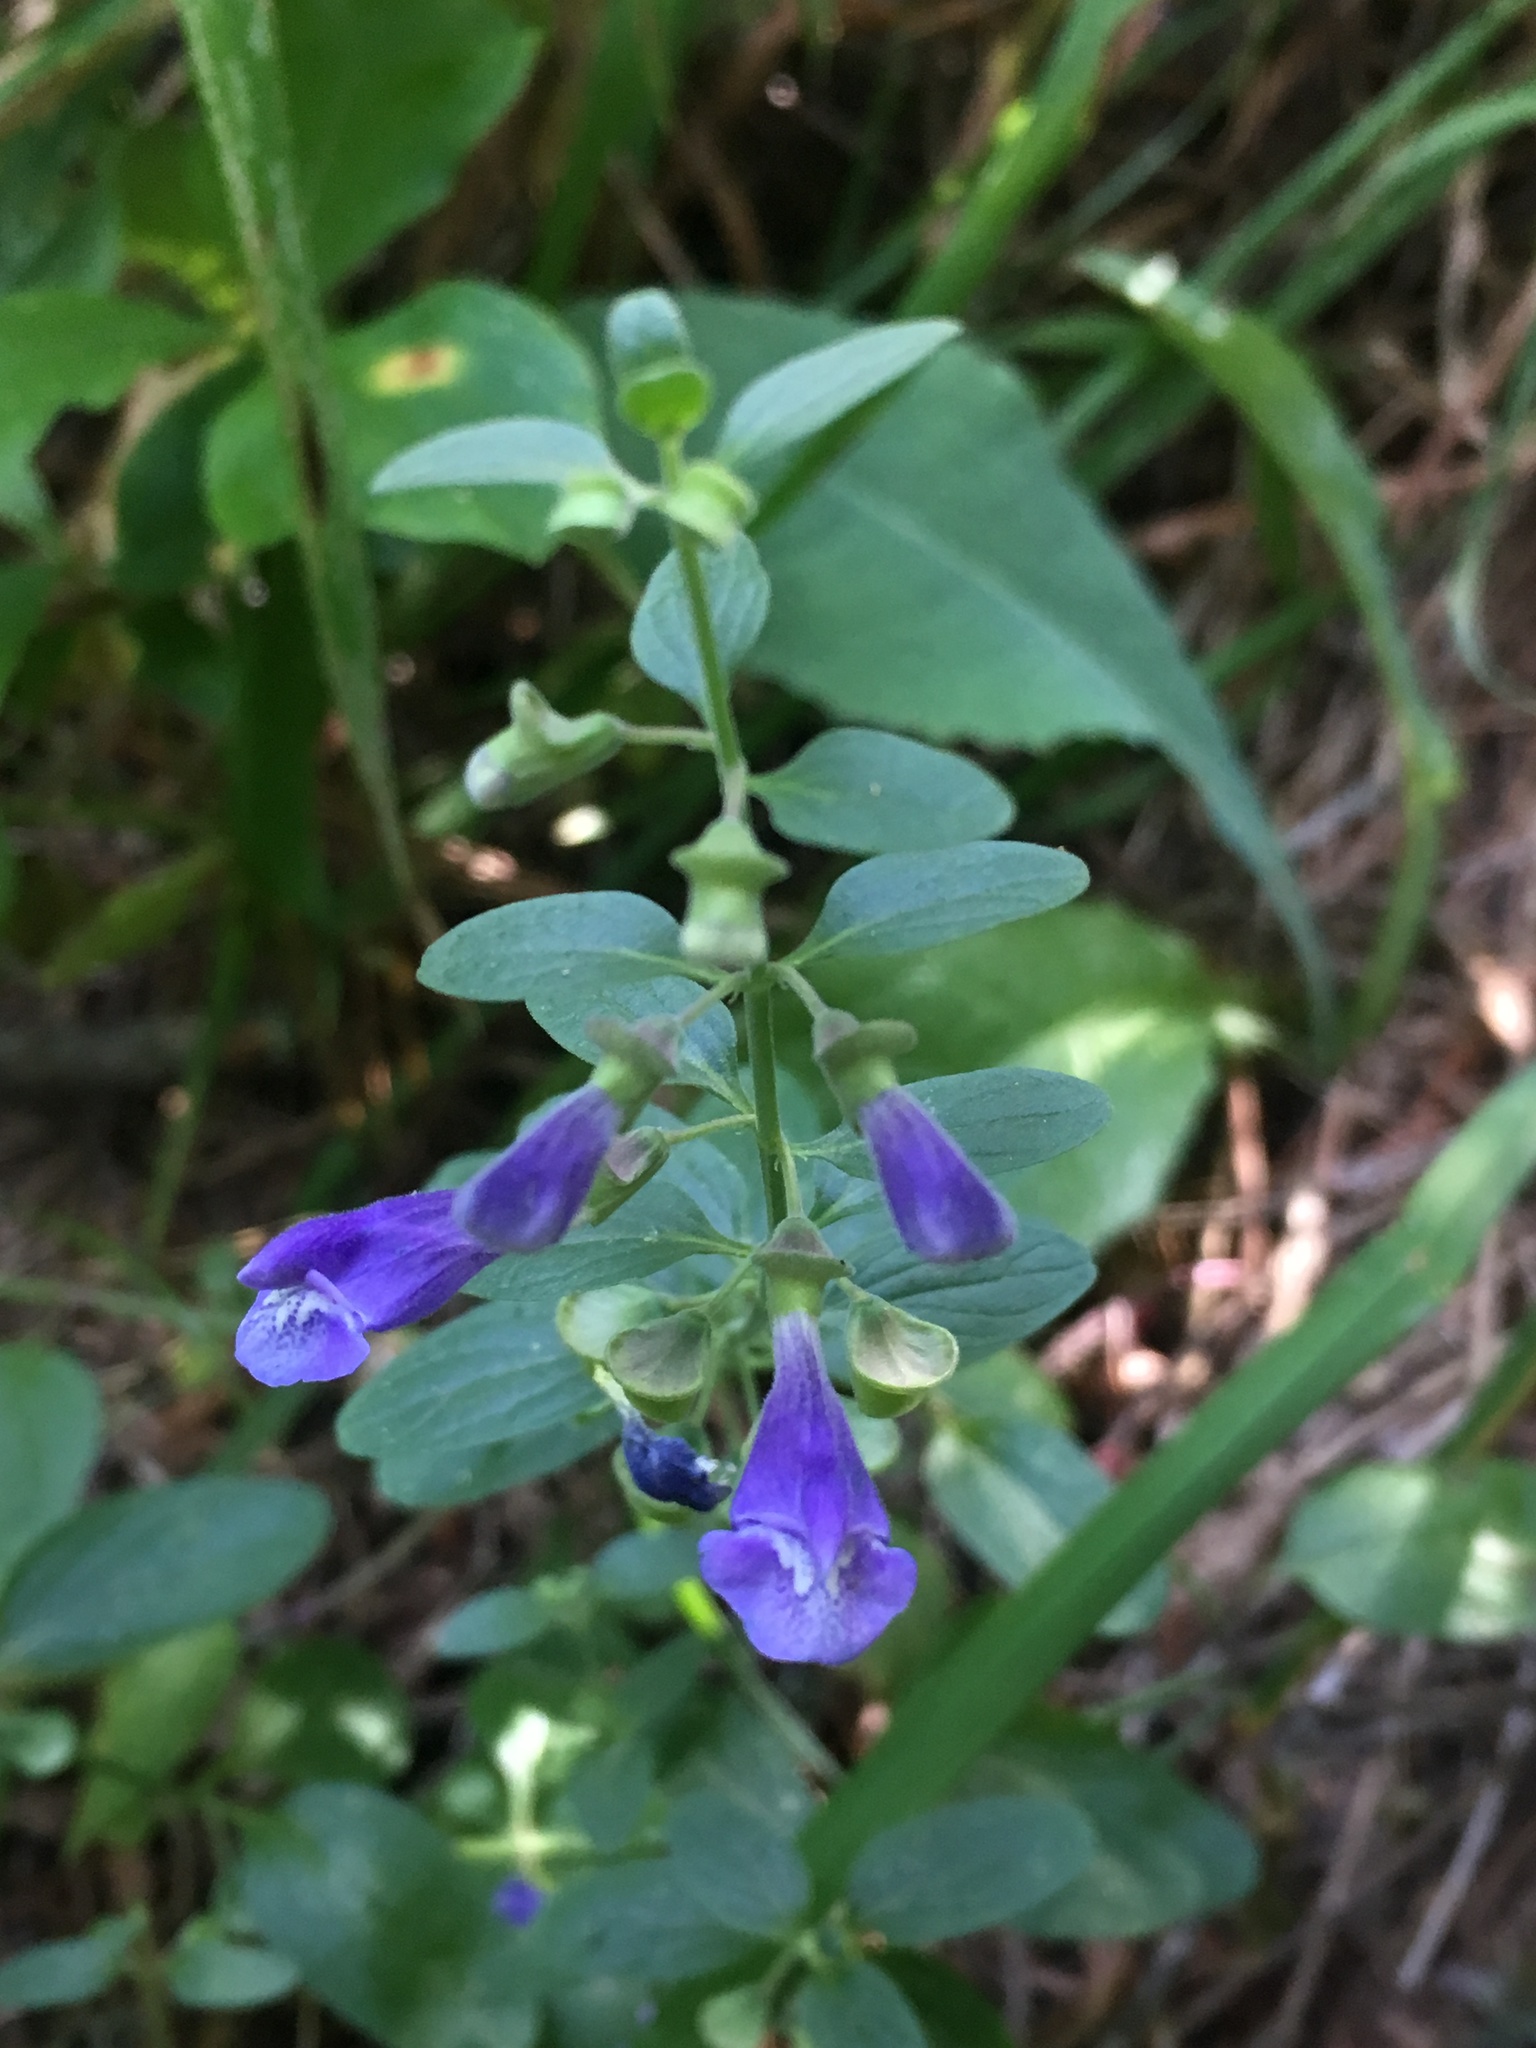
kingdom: Plantae
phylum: Tracheophyta
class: Magnoliopsida
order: Lamiales
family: Lamiaceae
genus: Scutellaria
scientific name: Scutellaria antirrhinoides
